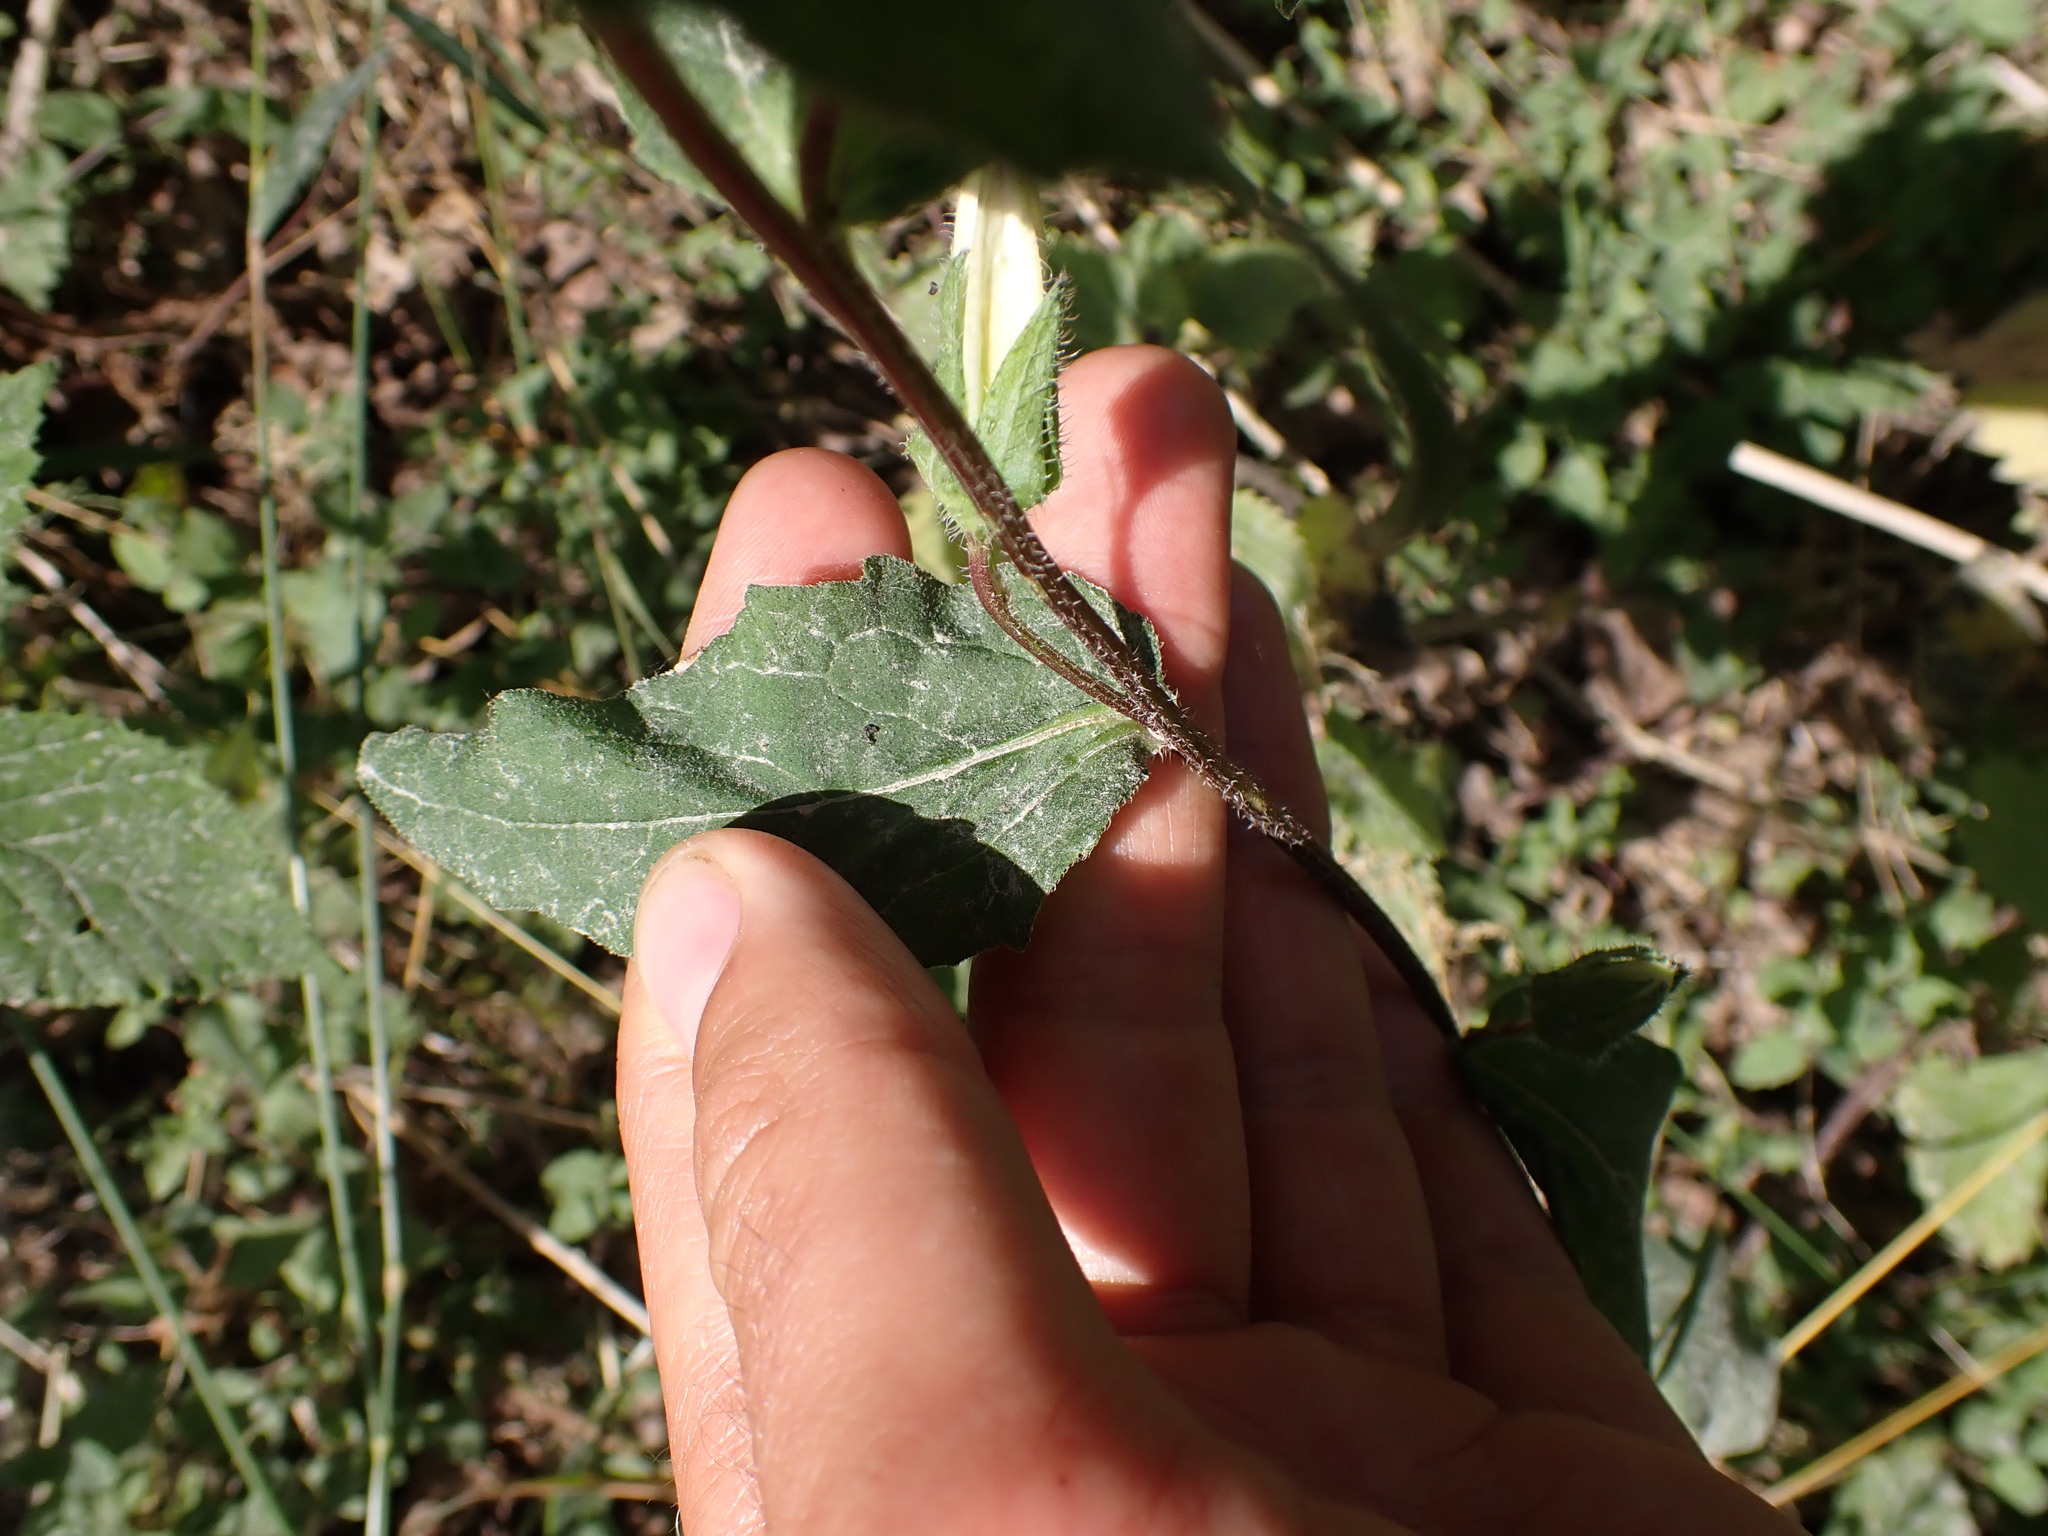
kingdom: Plantae
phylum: Tracheophyta
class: Magnoliopsida
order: Asterales
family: Campanulaceae
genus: Campanula
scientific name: Campanula trachelium
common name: Nettle-leaved bellflower
